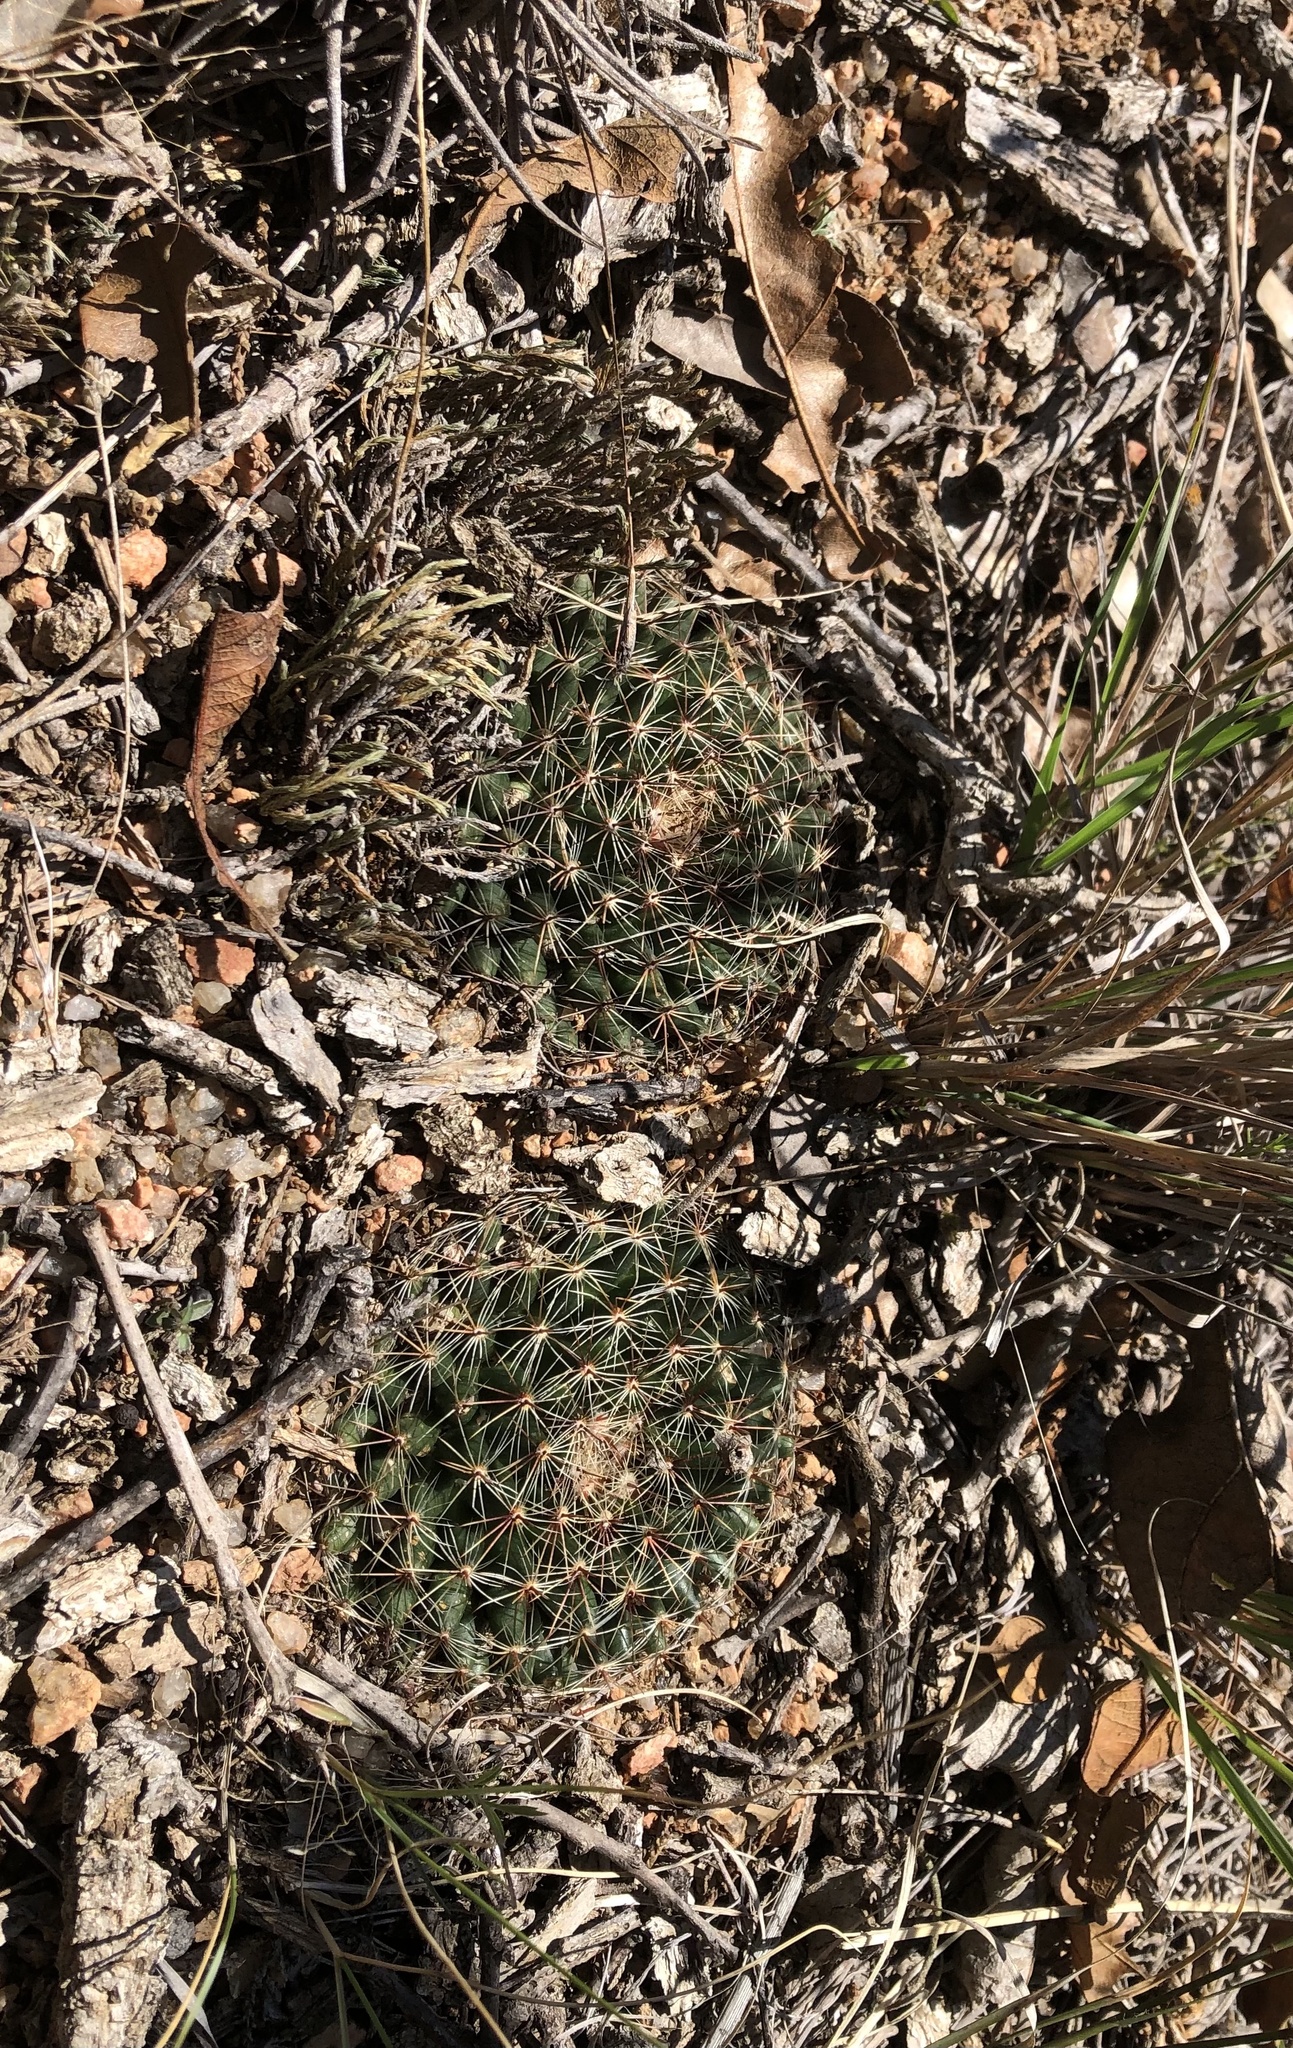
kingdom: Plantae
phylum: Tracheophyta
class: Magnoliopsida
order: Caryophyllales
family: Cactaceae
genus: Mammillaria
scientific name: Mammillaria heyderi
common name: Little nipple cactus
